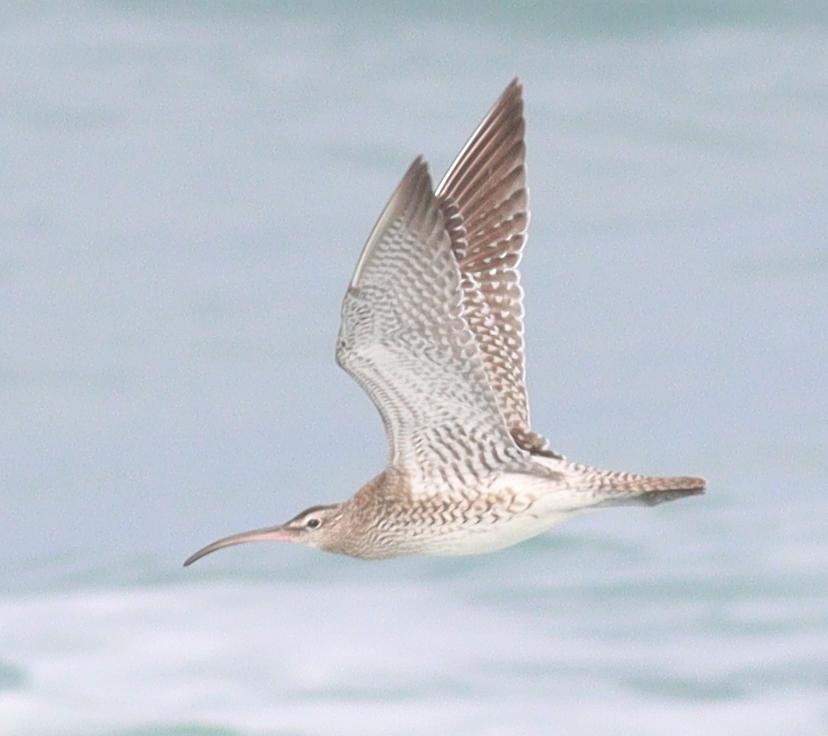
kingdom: Animalia
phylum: Chordata
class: Aves
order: Charadriiformes
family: Scolopacidae
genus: Numenius
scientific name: Numenius phaeopus
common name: Whimbrel
